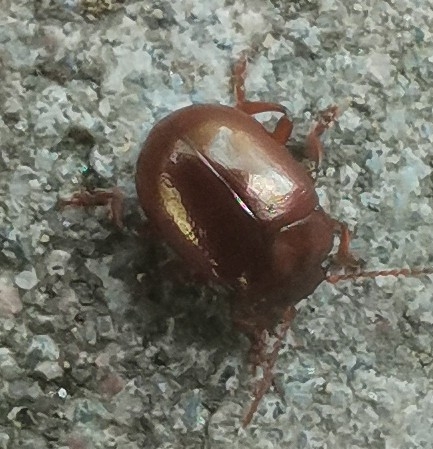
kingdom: Animalia
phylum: Arthropoda
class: Insecta
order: Coleoptera
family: Chrysomelidae
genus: Chrysolina
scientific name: Chrysolina staphylaea
